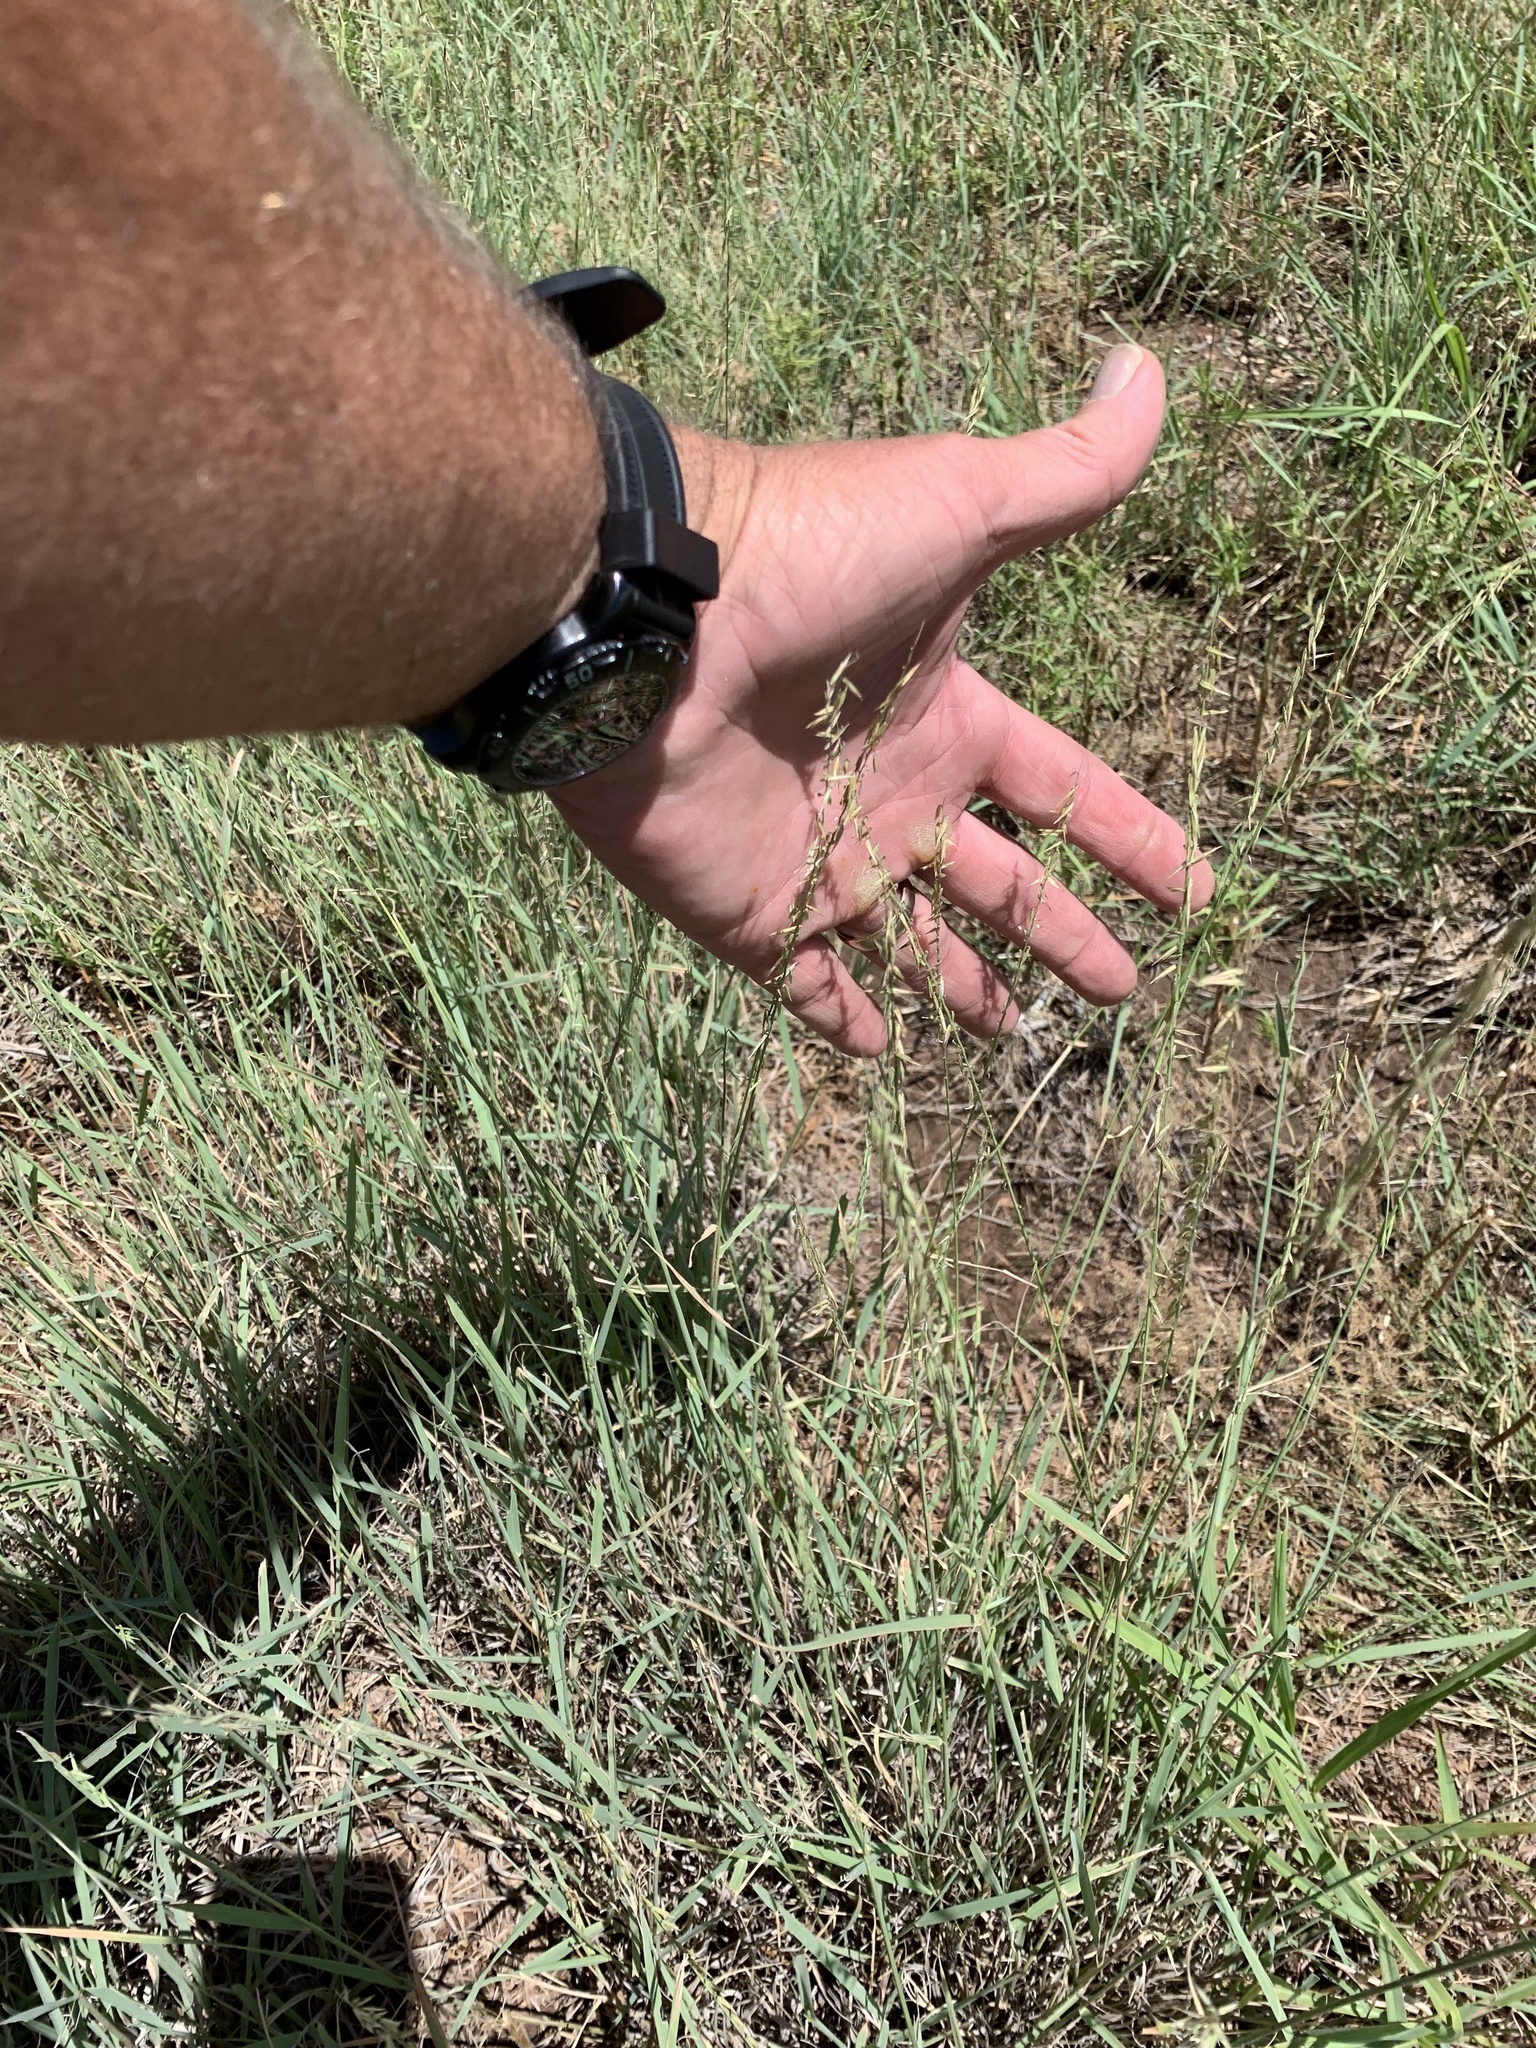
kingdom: Plantae
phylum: Tracheophyta
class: Liliopsida
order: Poales
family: Poaceae
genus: Bouteloua
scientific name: Bouteloua curtipendula
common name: Side-oats grama
